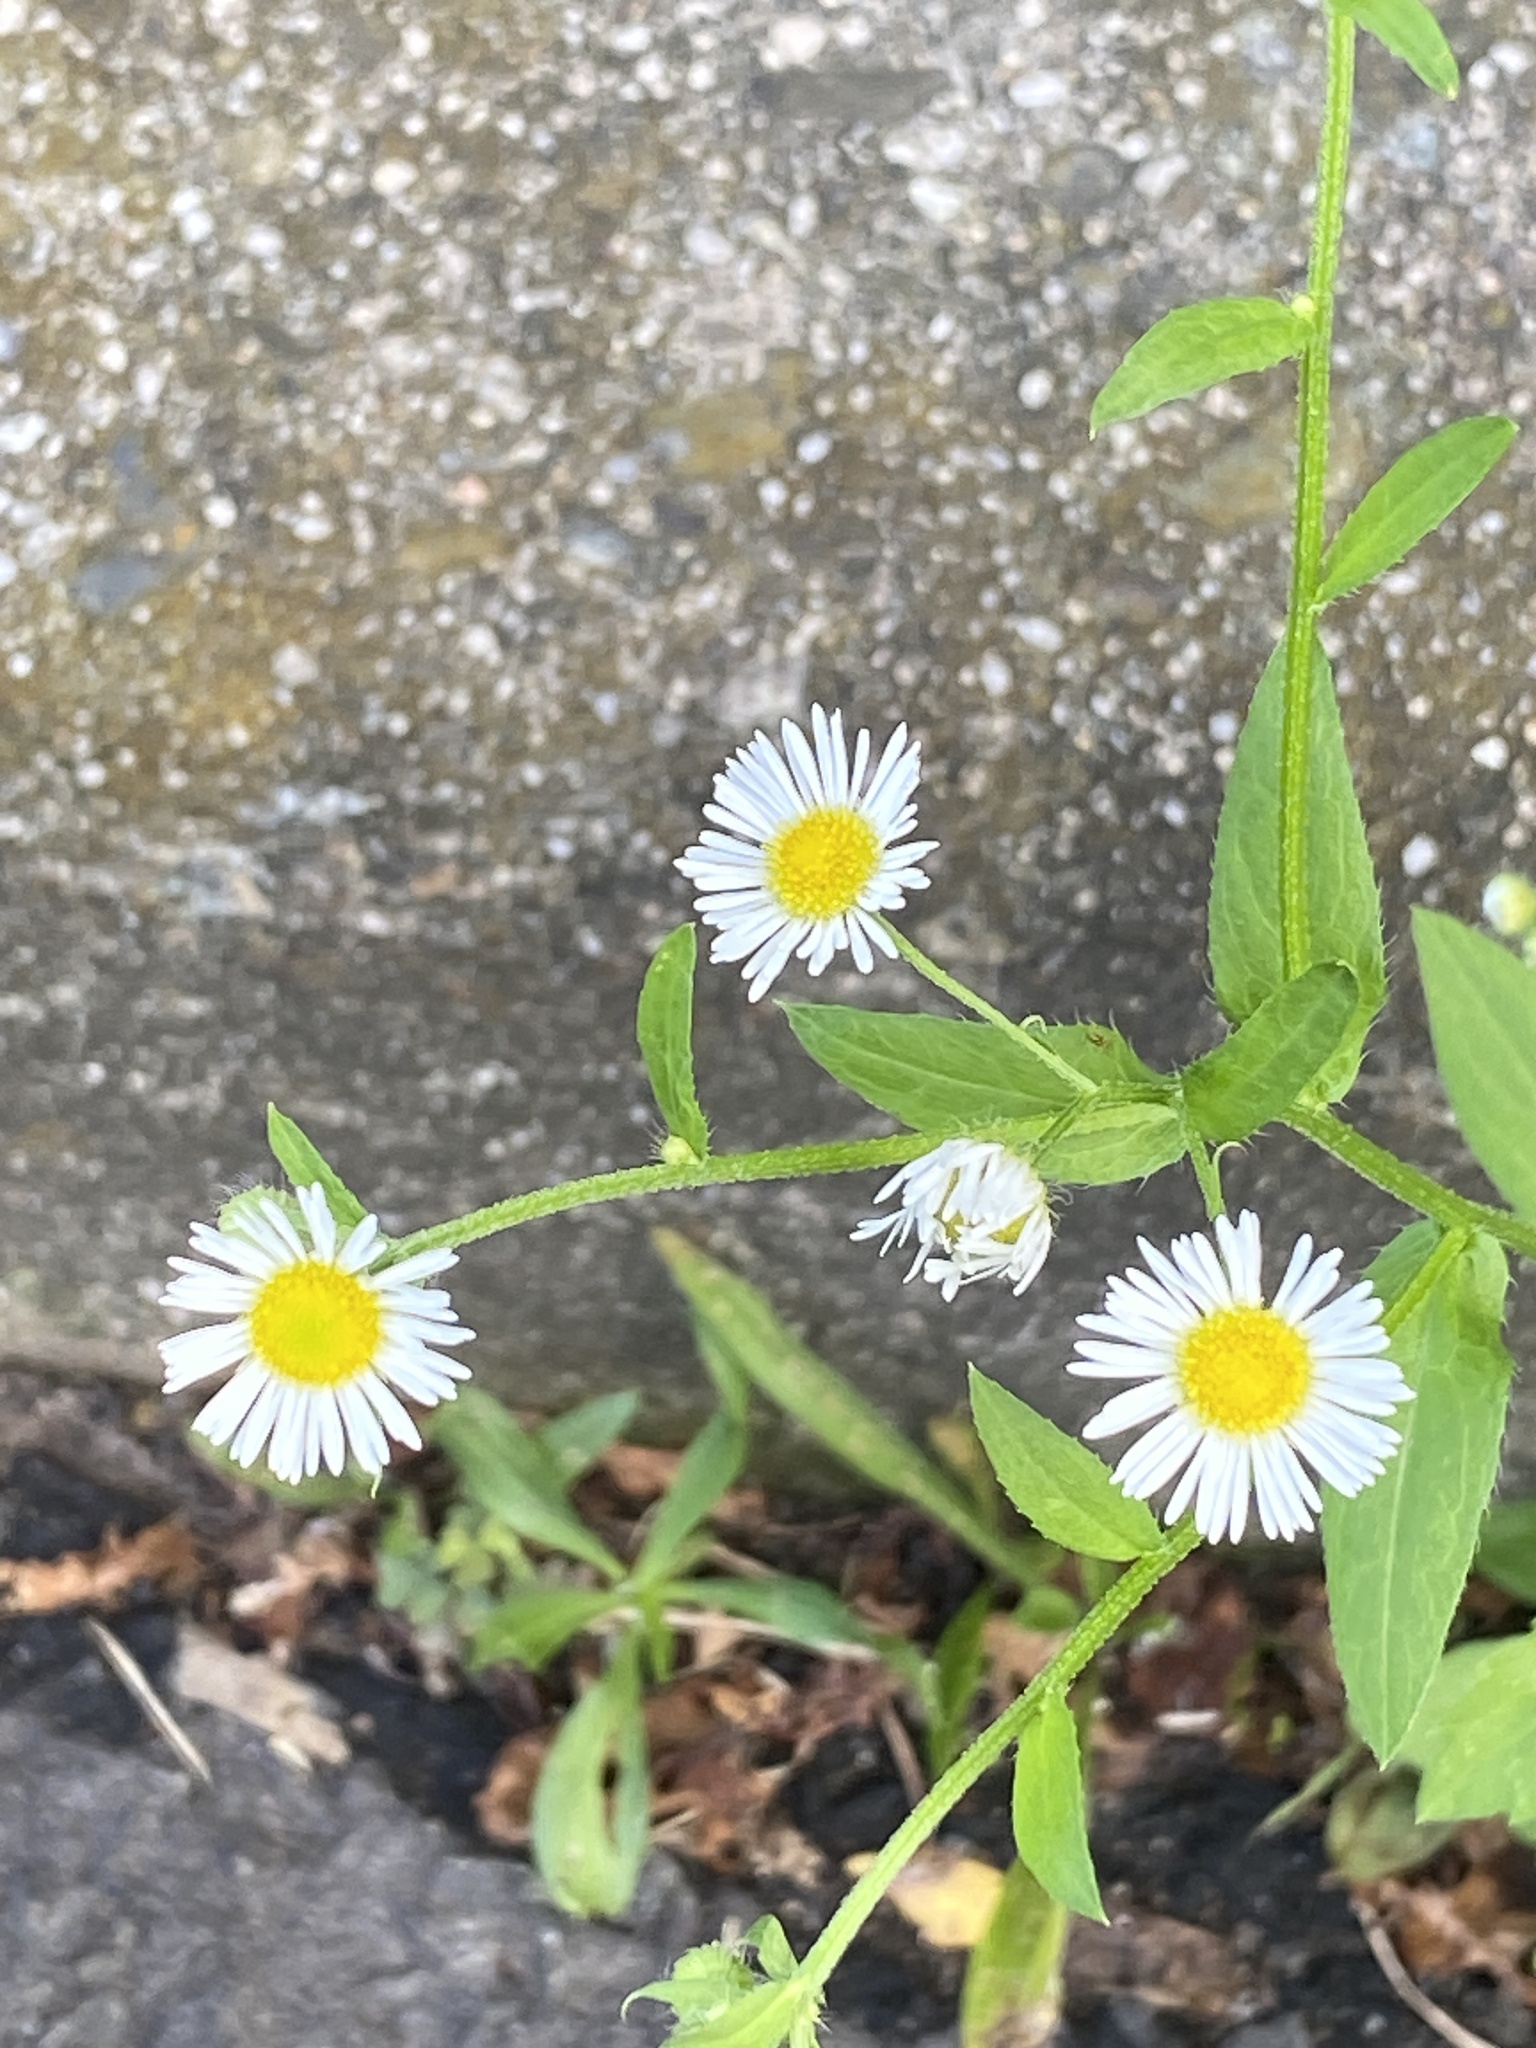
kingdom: Plantae
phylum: Tracheophyta
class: Magnoliopsida
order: Asterales
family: Asteraceae
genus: Erigeron
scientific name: Erigeron annuus
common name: Tall fleabane
